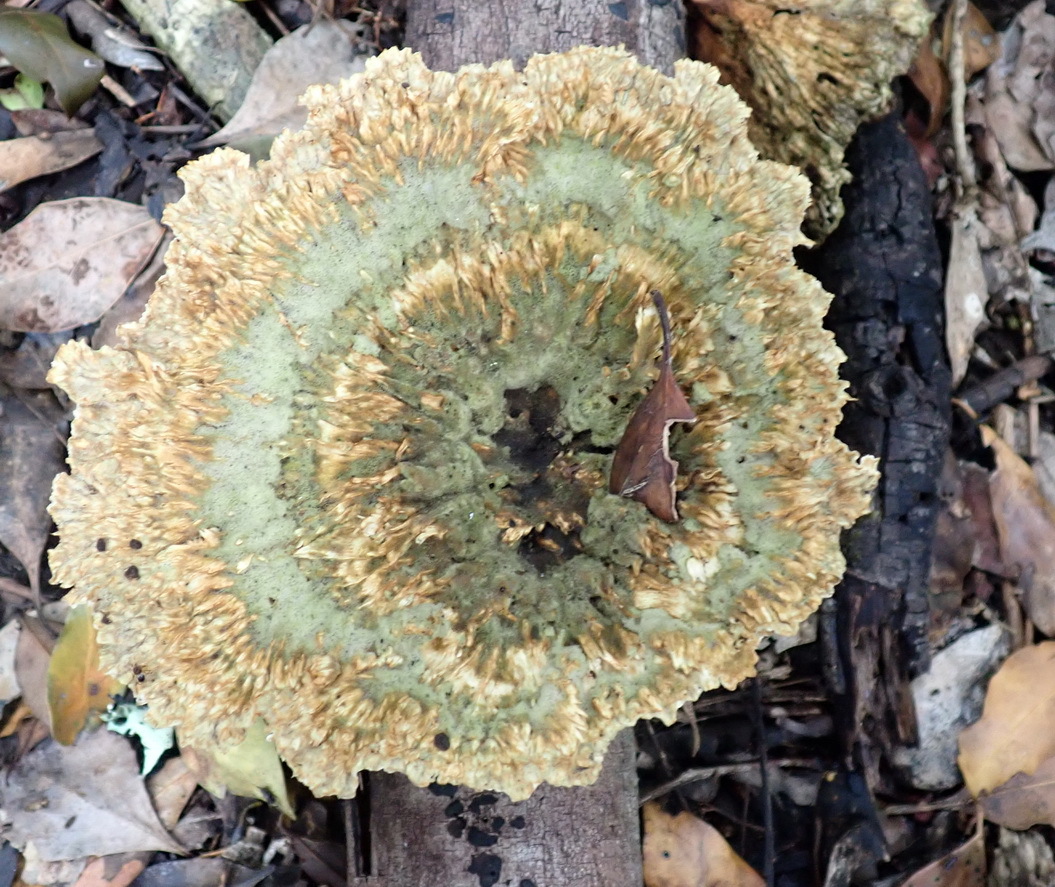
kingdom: Fungi
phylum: Basidiomycota
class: Agaricomycetes
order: Polyporales
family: Panaceae
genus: Cymatoderma
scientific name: Cymatoderma elegans
